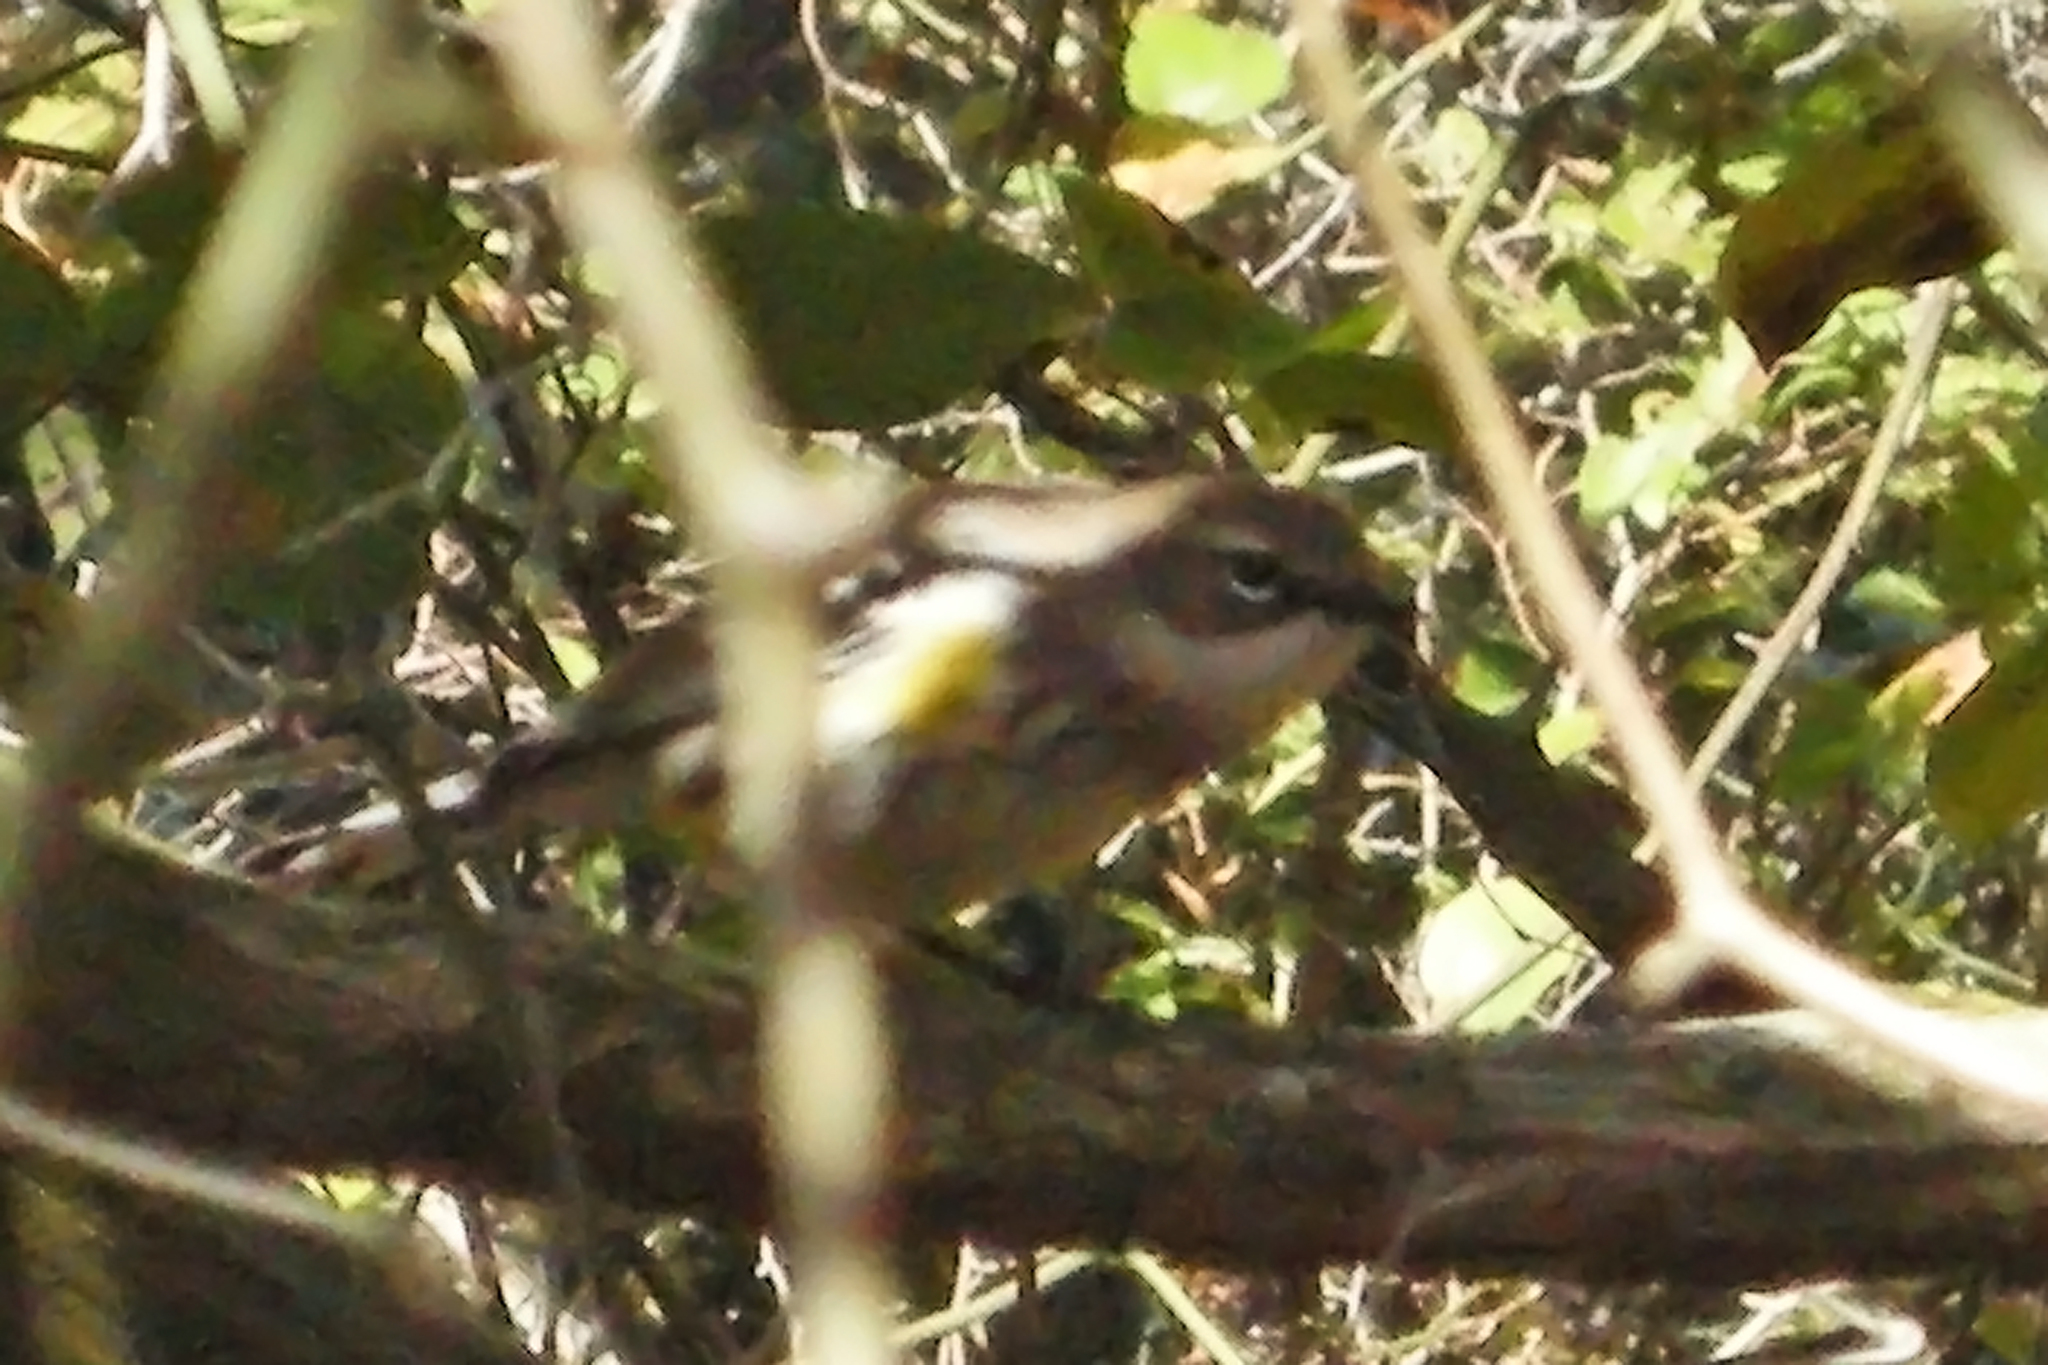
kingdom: Animalia
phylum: Chordata
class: Aves
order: Passeriformes
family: Parulidae
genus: Setophaga
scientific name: Setophaga coronata
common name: Myrtle warbler
